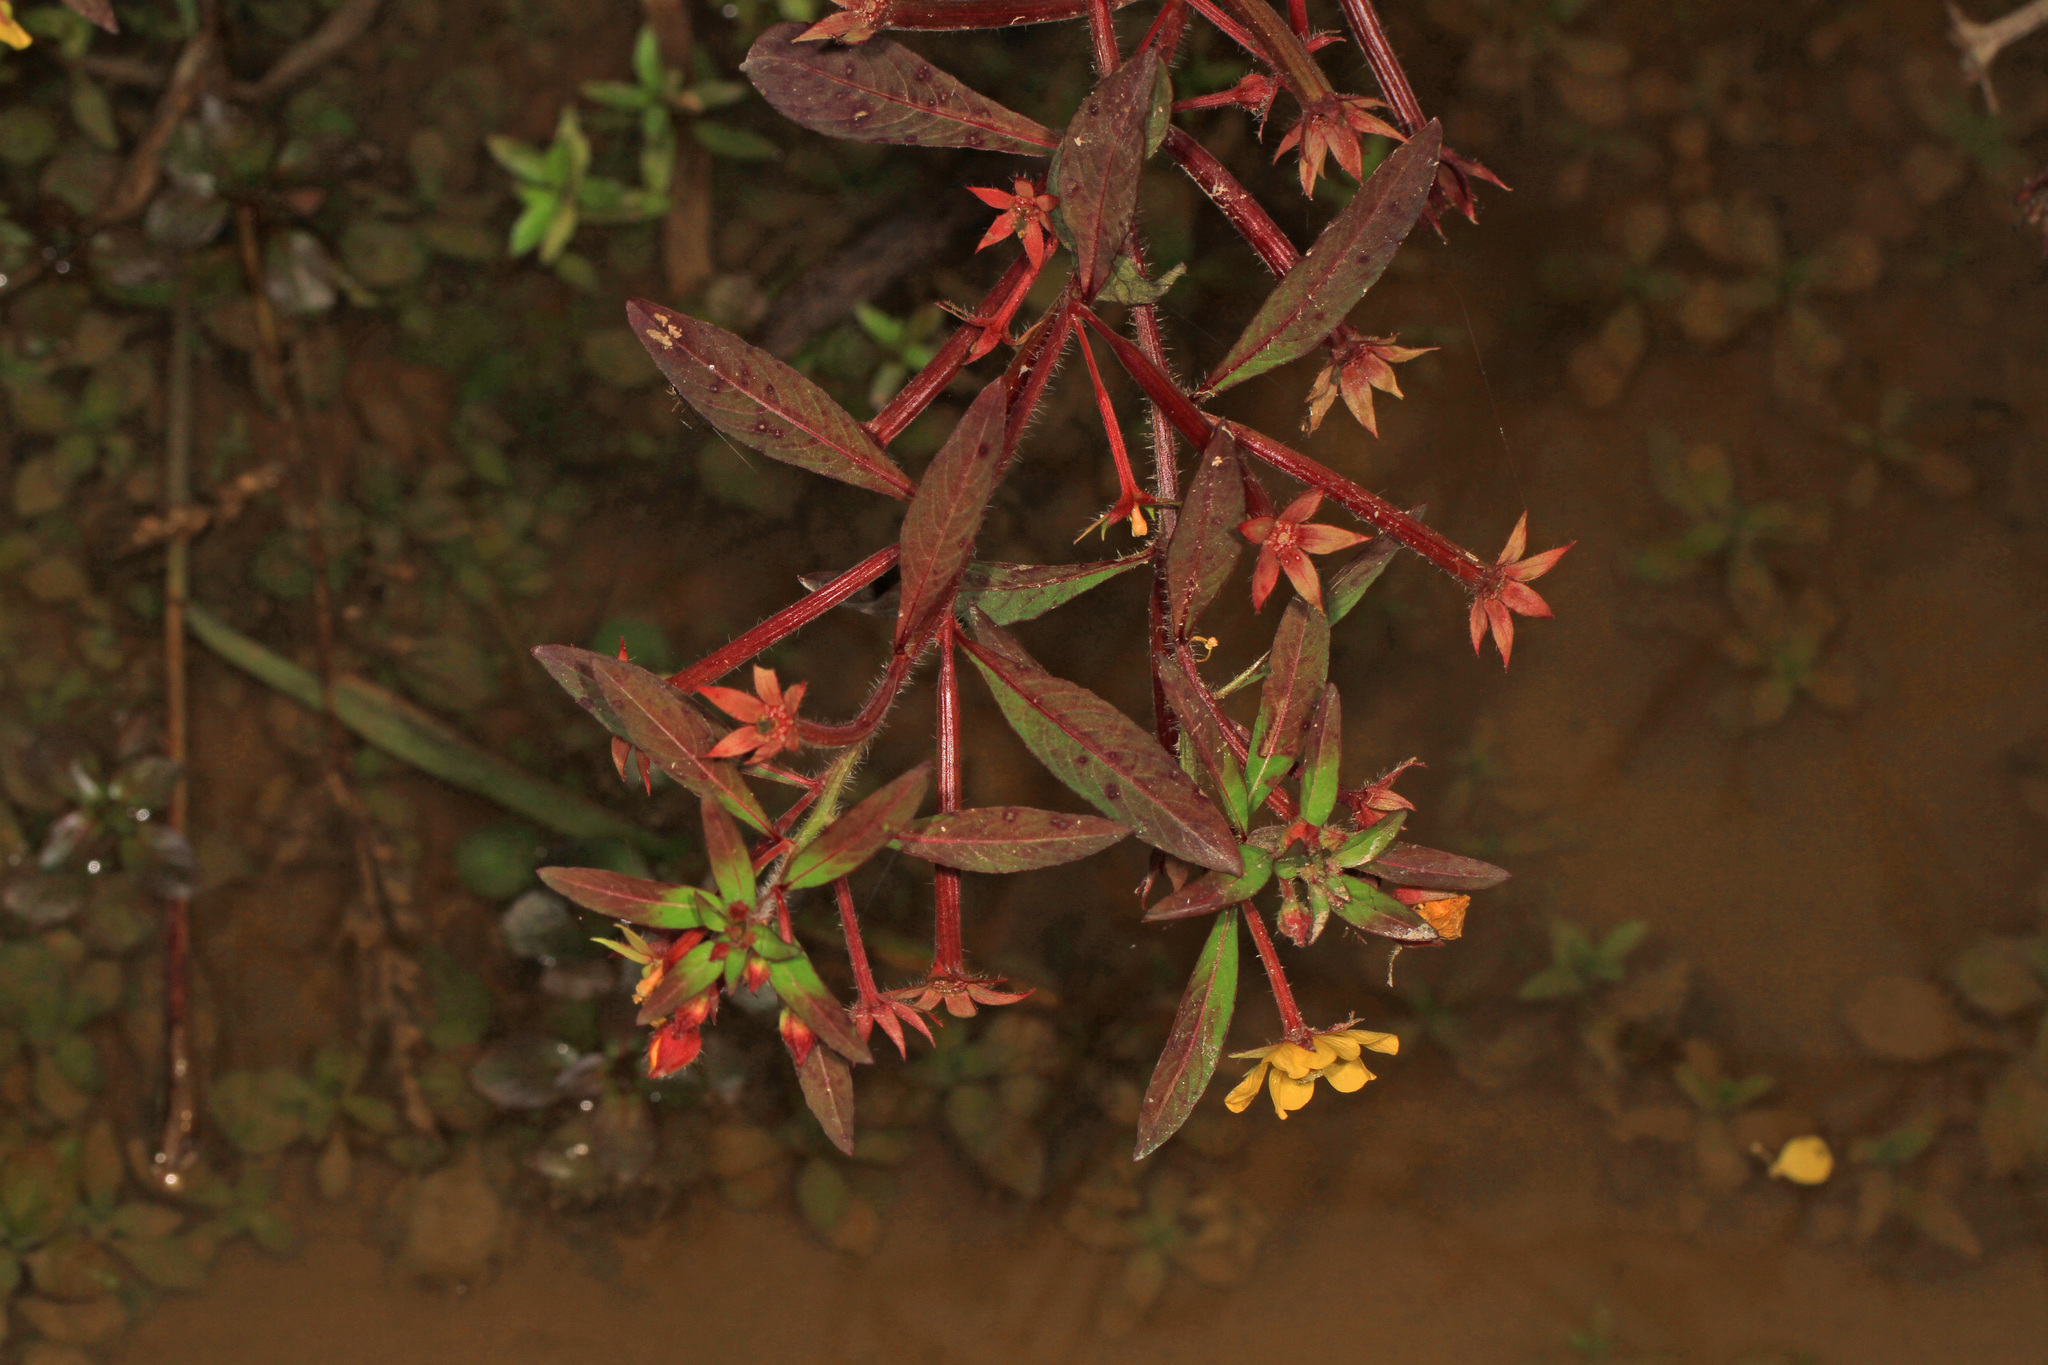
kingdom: Plantae
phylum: Tracheophyta
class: Magnoliopsida
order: Myrtales
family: Onagraceae
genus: Ludwigia
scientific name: Ludwigia leptocarpa
